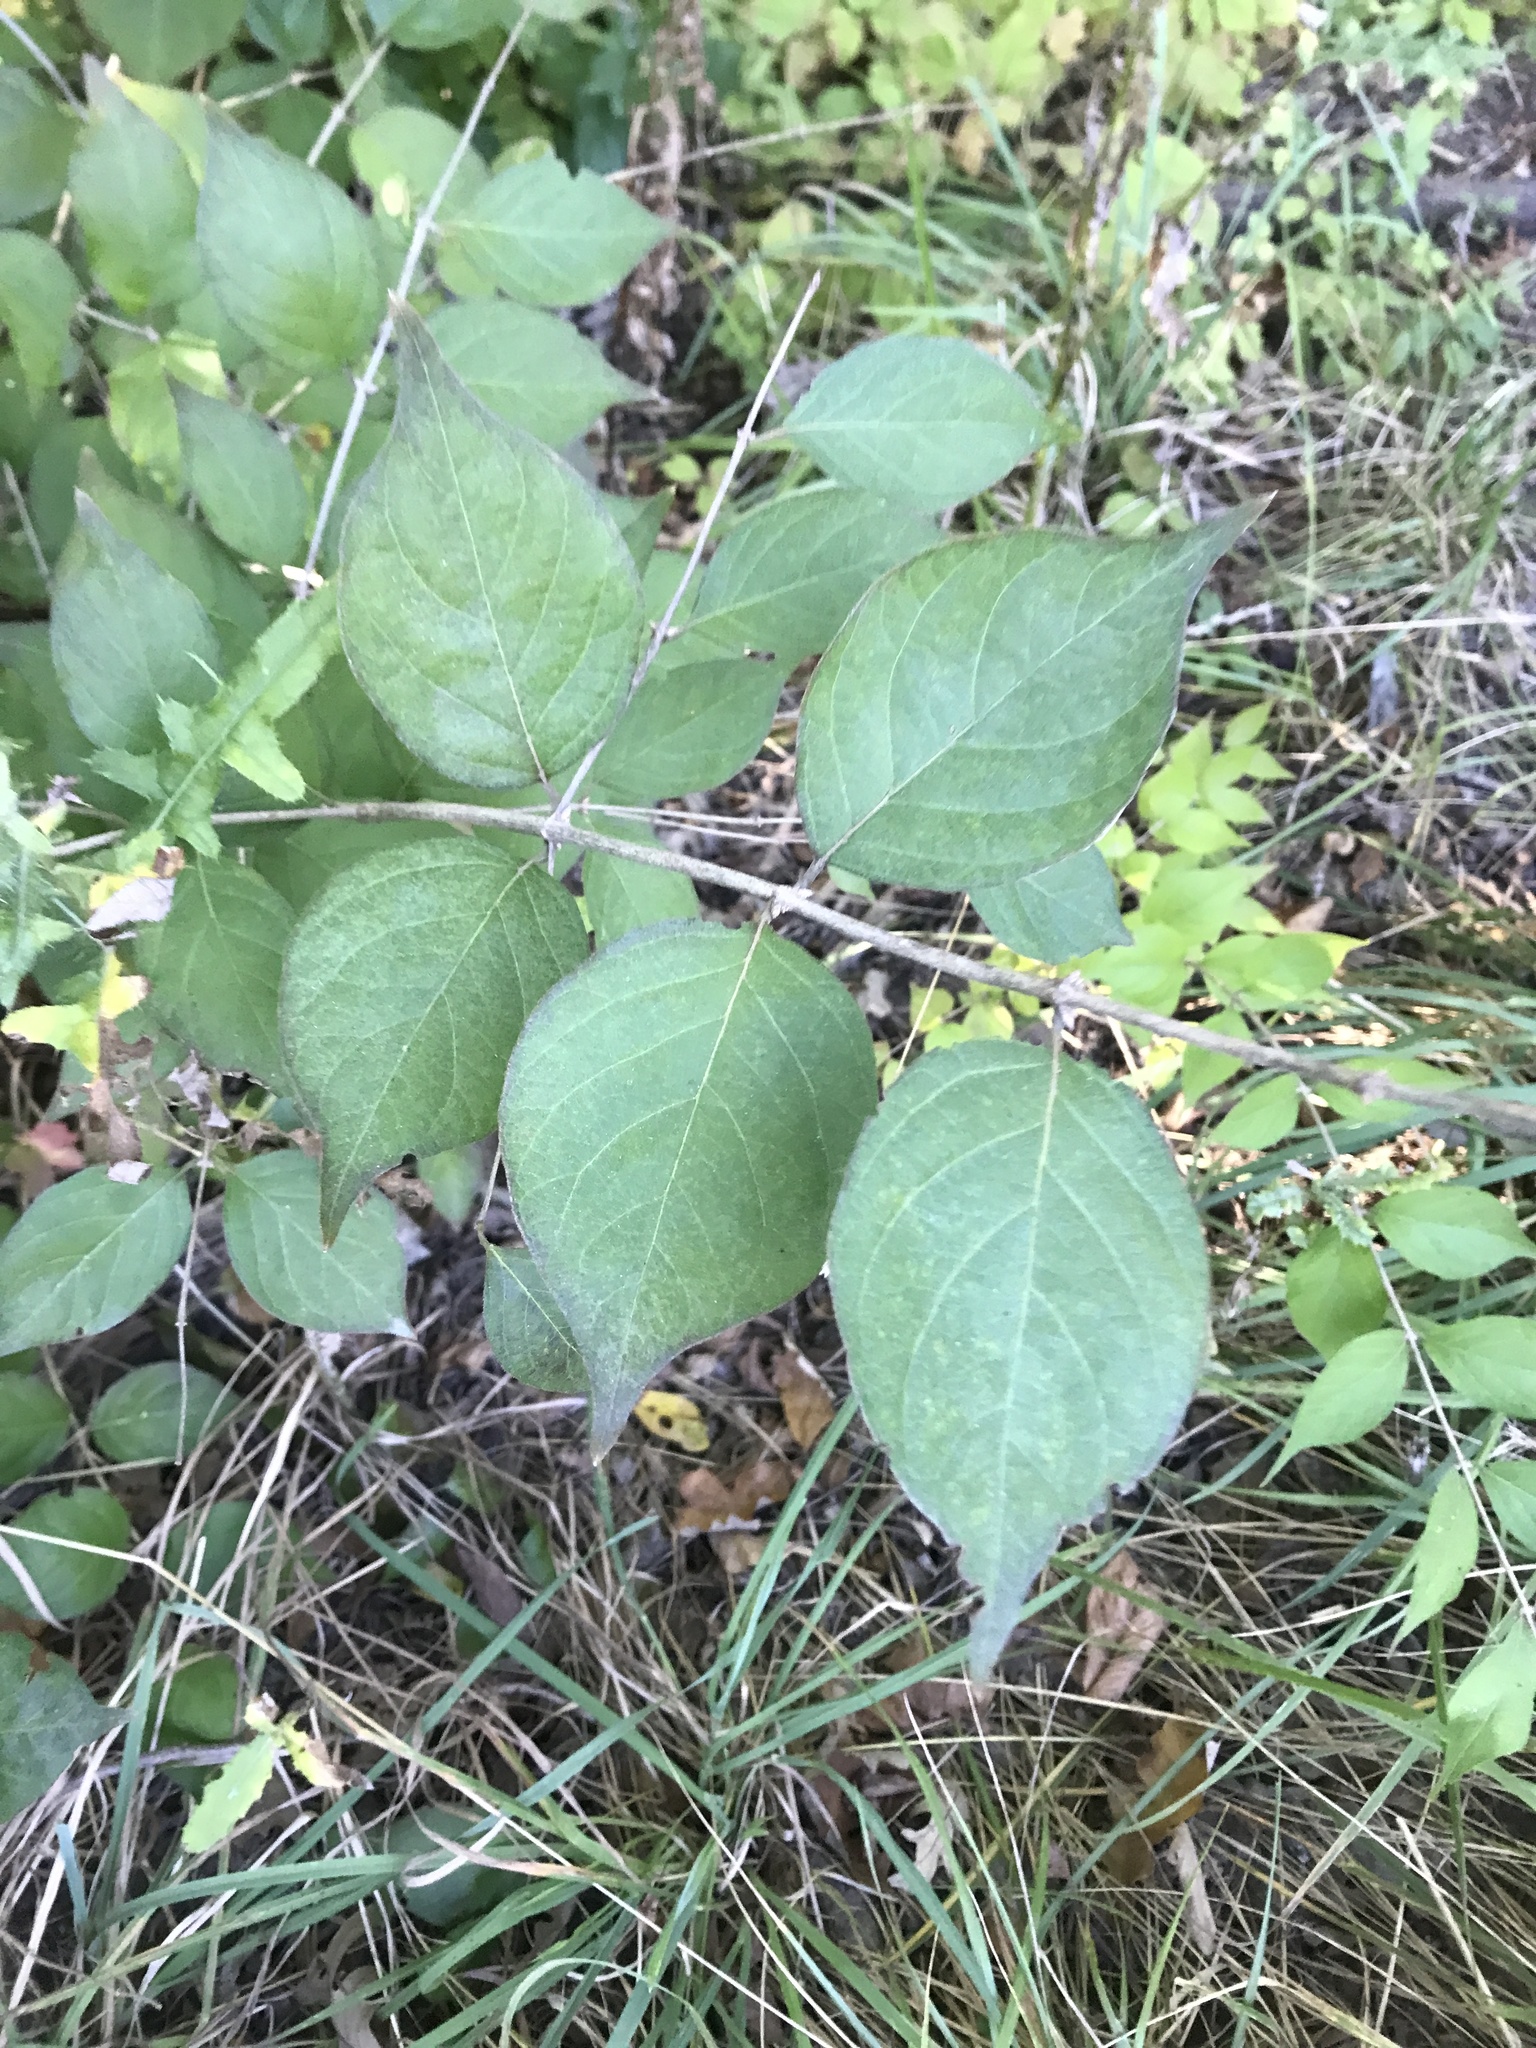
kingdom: Plantae
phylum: Tracheophyta
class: Magnoliopsida
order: Dipsacales
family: Caprifoliaceae
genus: Lonicera
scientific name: Lonicera maackii
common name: Amur honeysuckle
